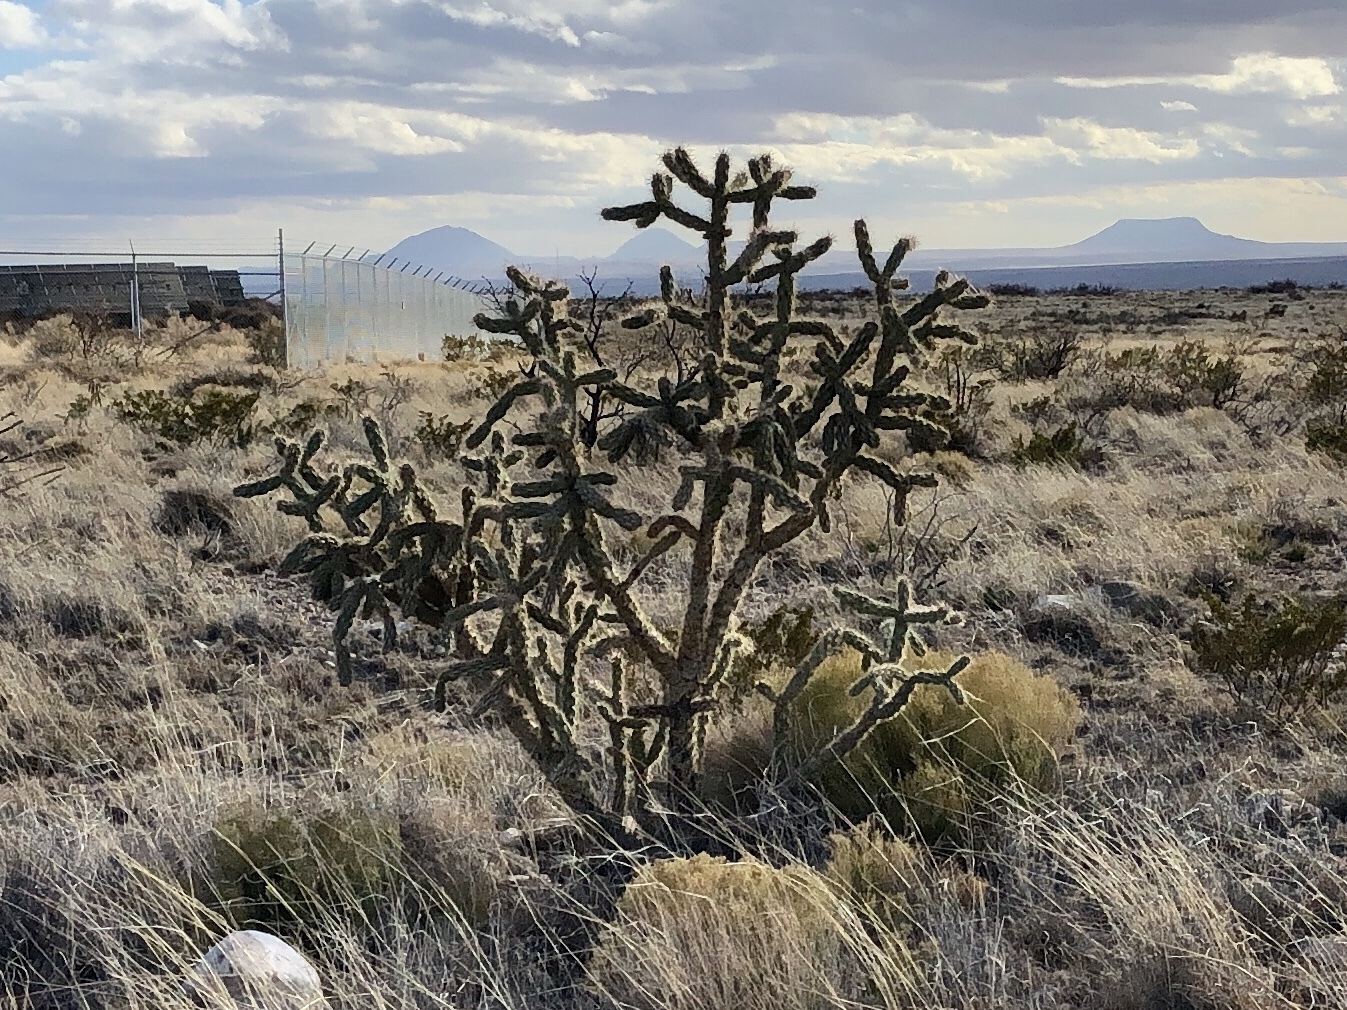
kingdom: Plantae
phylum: Tracheophyta
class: Magnoliopsida
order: Caryophyllales
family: Cactaceae
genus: Cylindropuntia
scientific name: Cylindropuntia imbricata
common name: Candelabrum cactus
